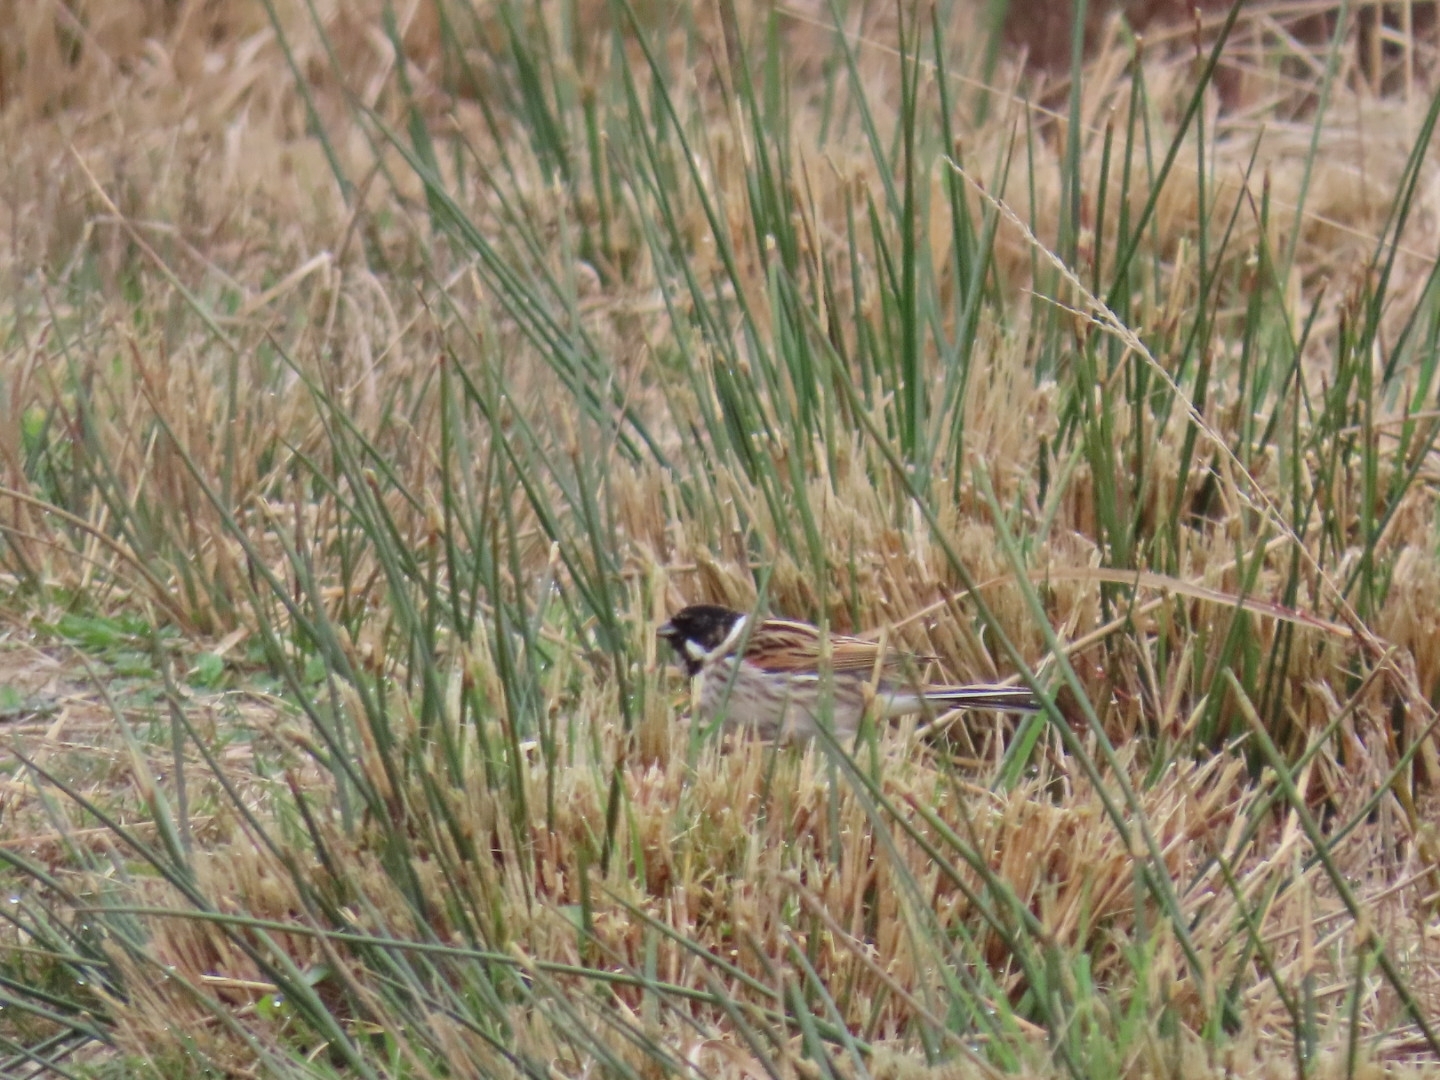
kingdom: Animalia
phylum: Chordata
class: Aves
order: Passeriformes
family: Emberizidae
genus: Emberiza
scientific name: Emberiza schoeniclus
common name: Reed bunting
